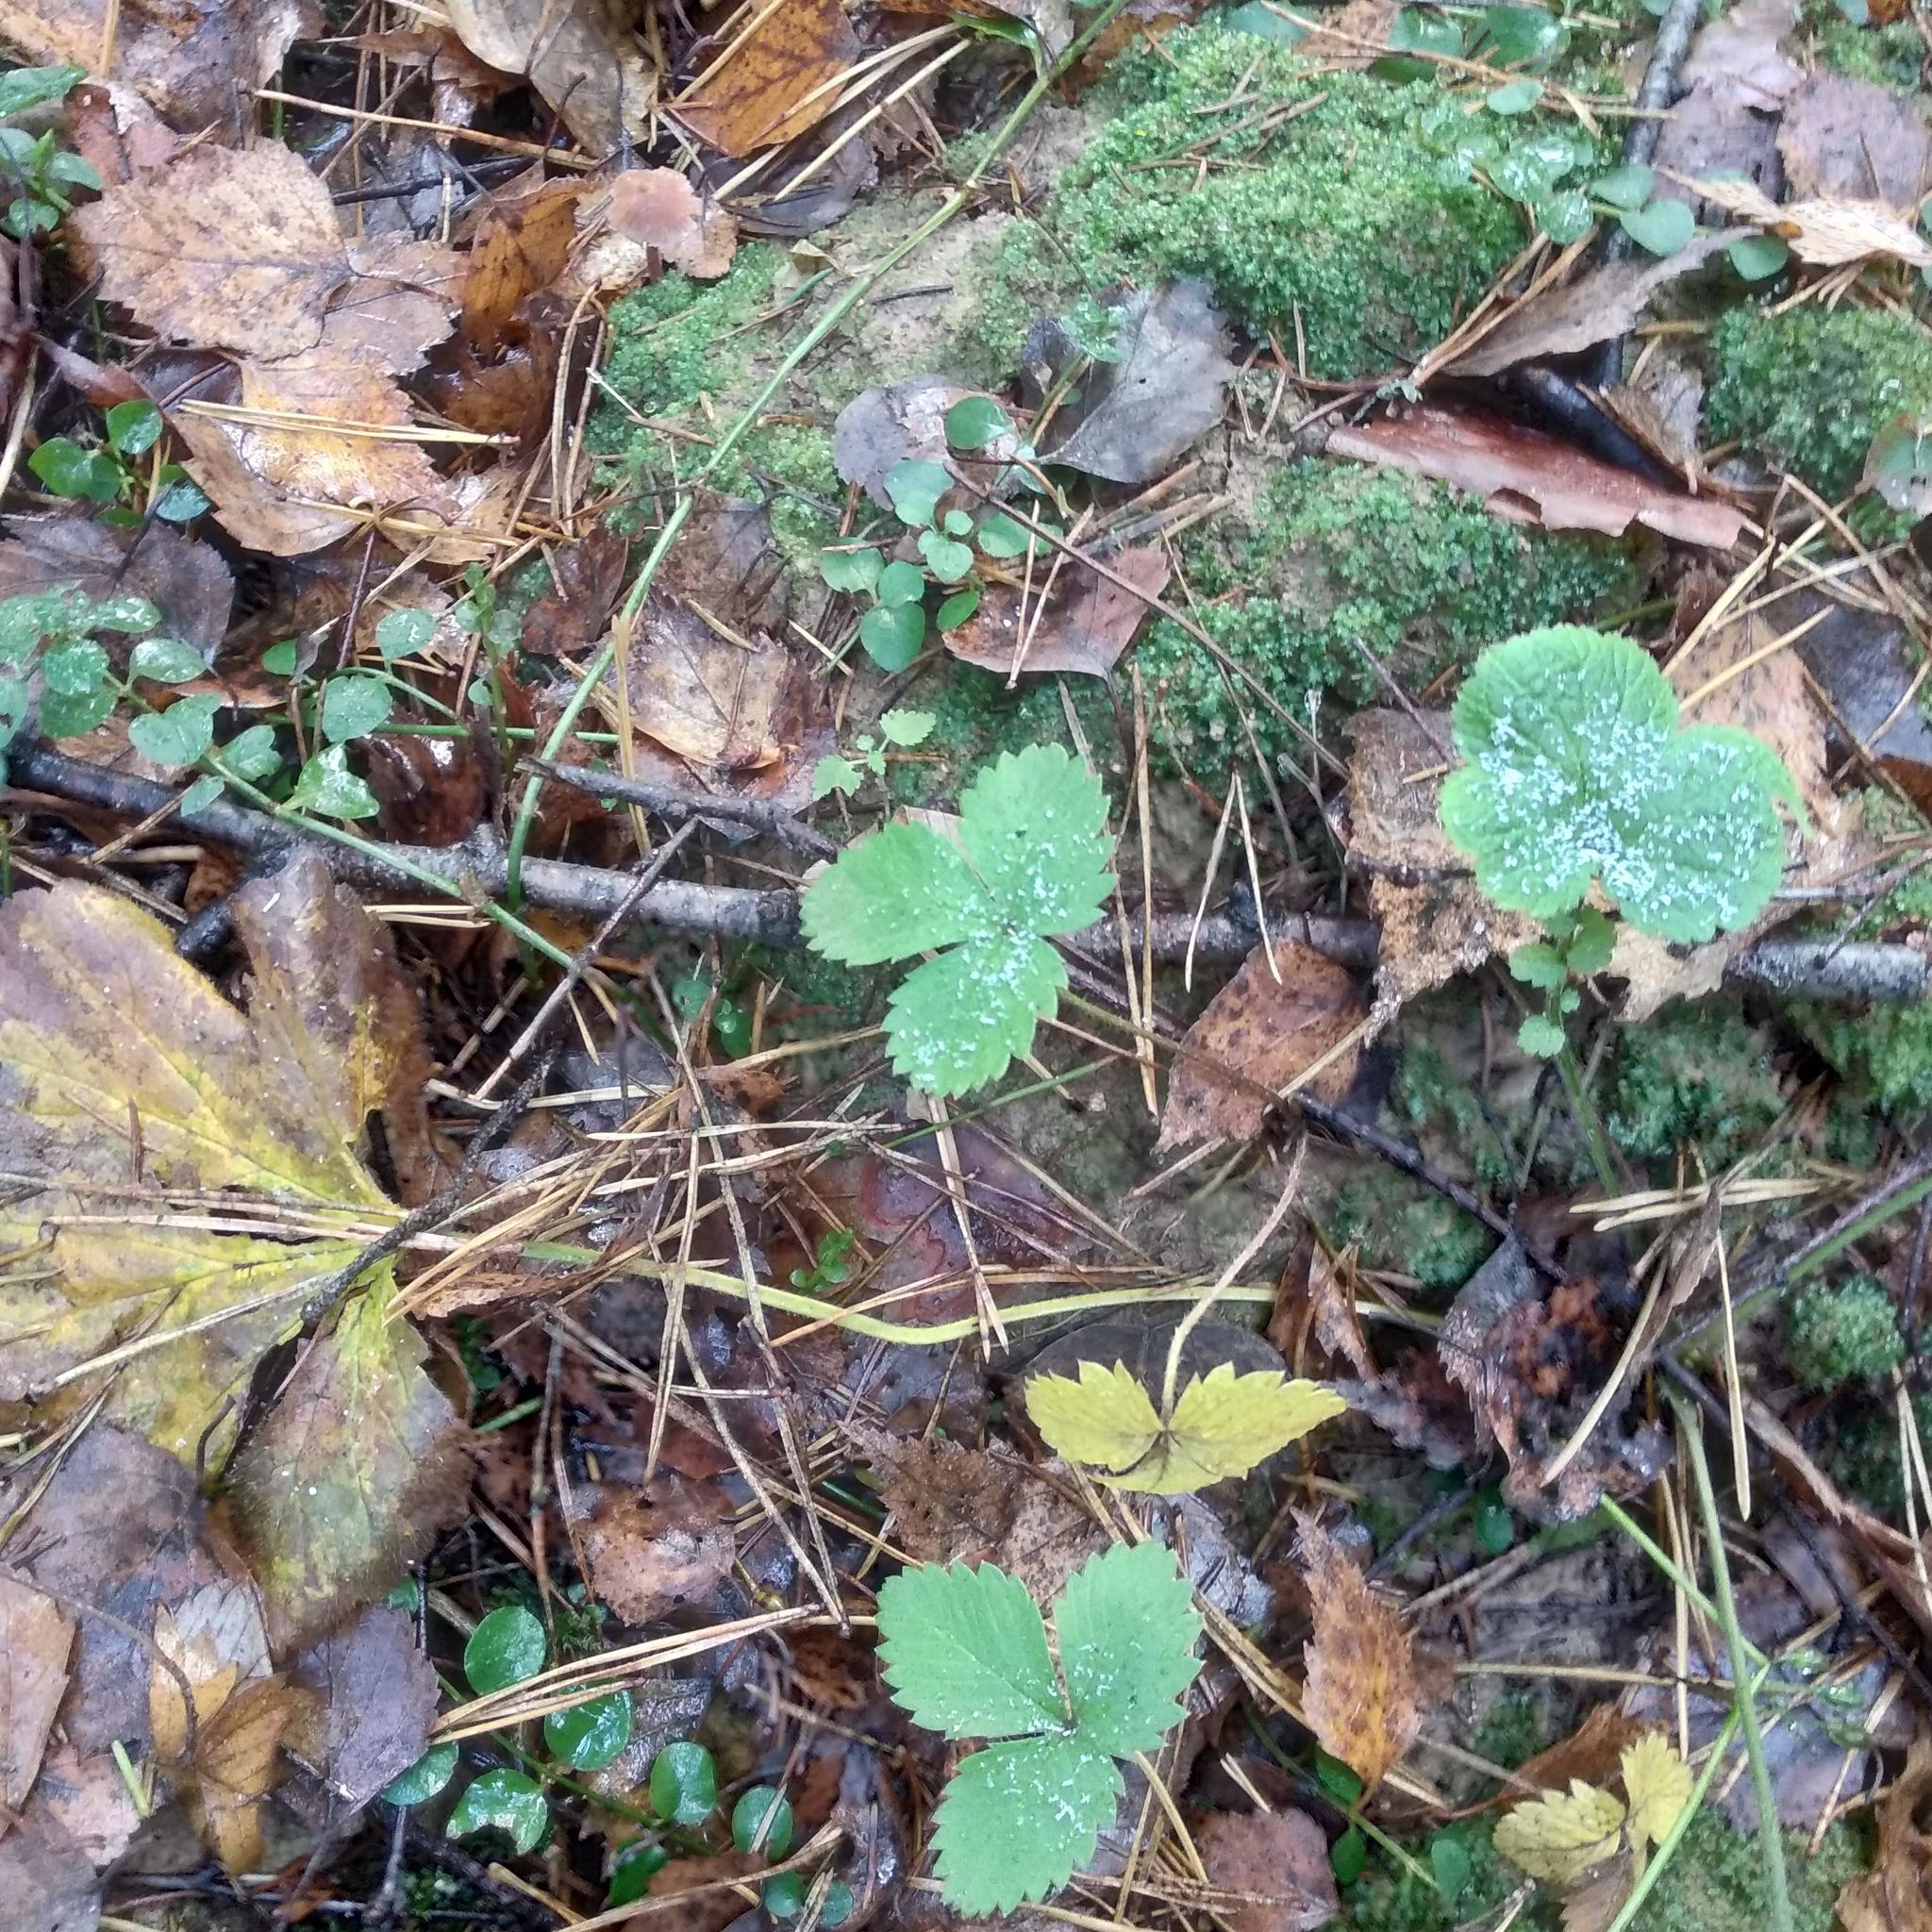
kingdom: Plantae
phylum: Tracheophyta
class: Magnoliopsida
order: Rosales
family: Rosaceae
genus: Fragaria
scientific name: Fragaria vesca
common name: Wild strawberry
